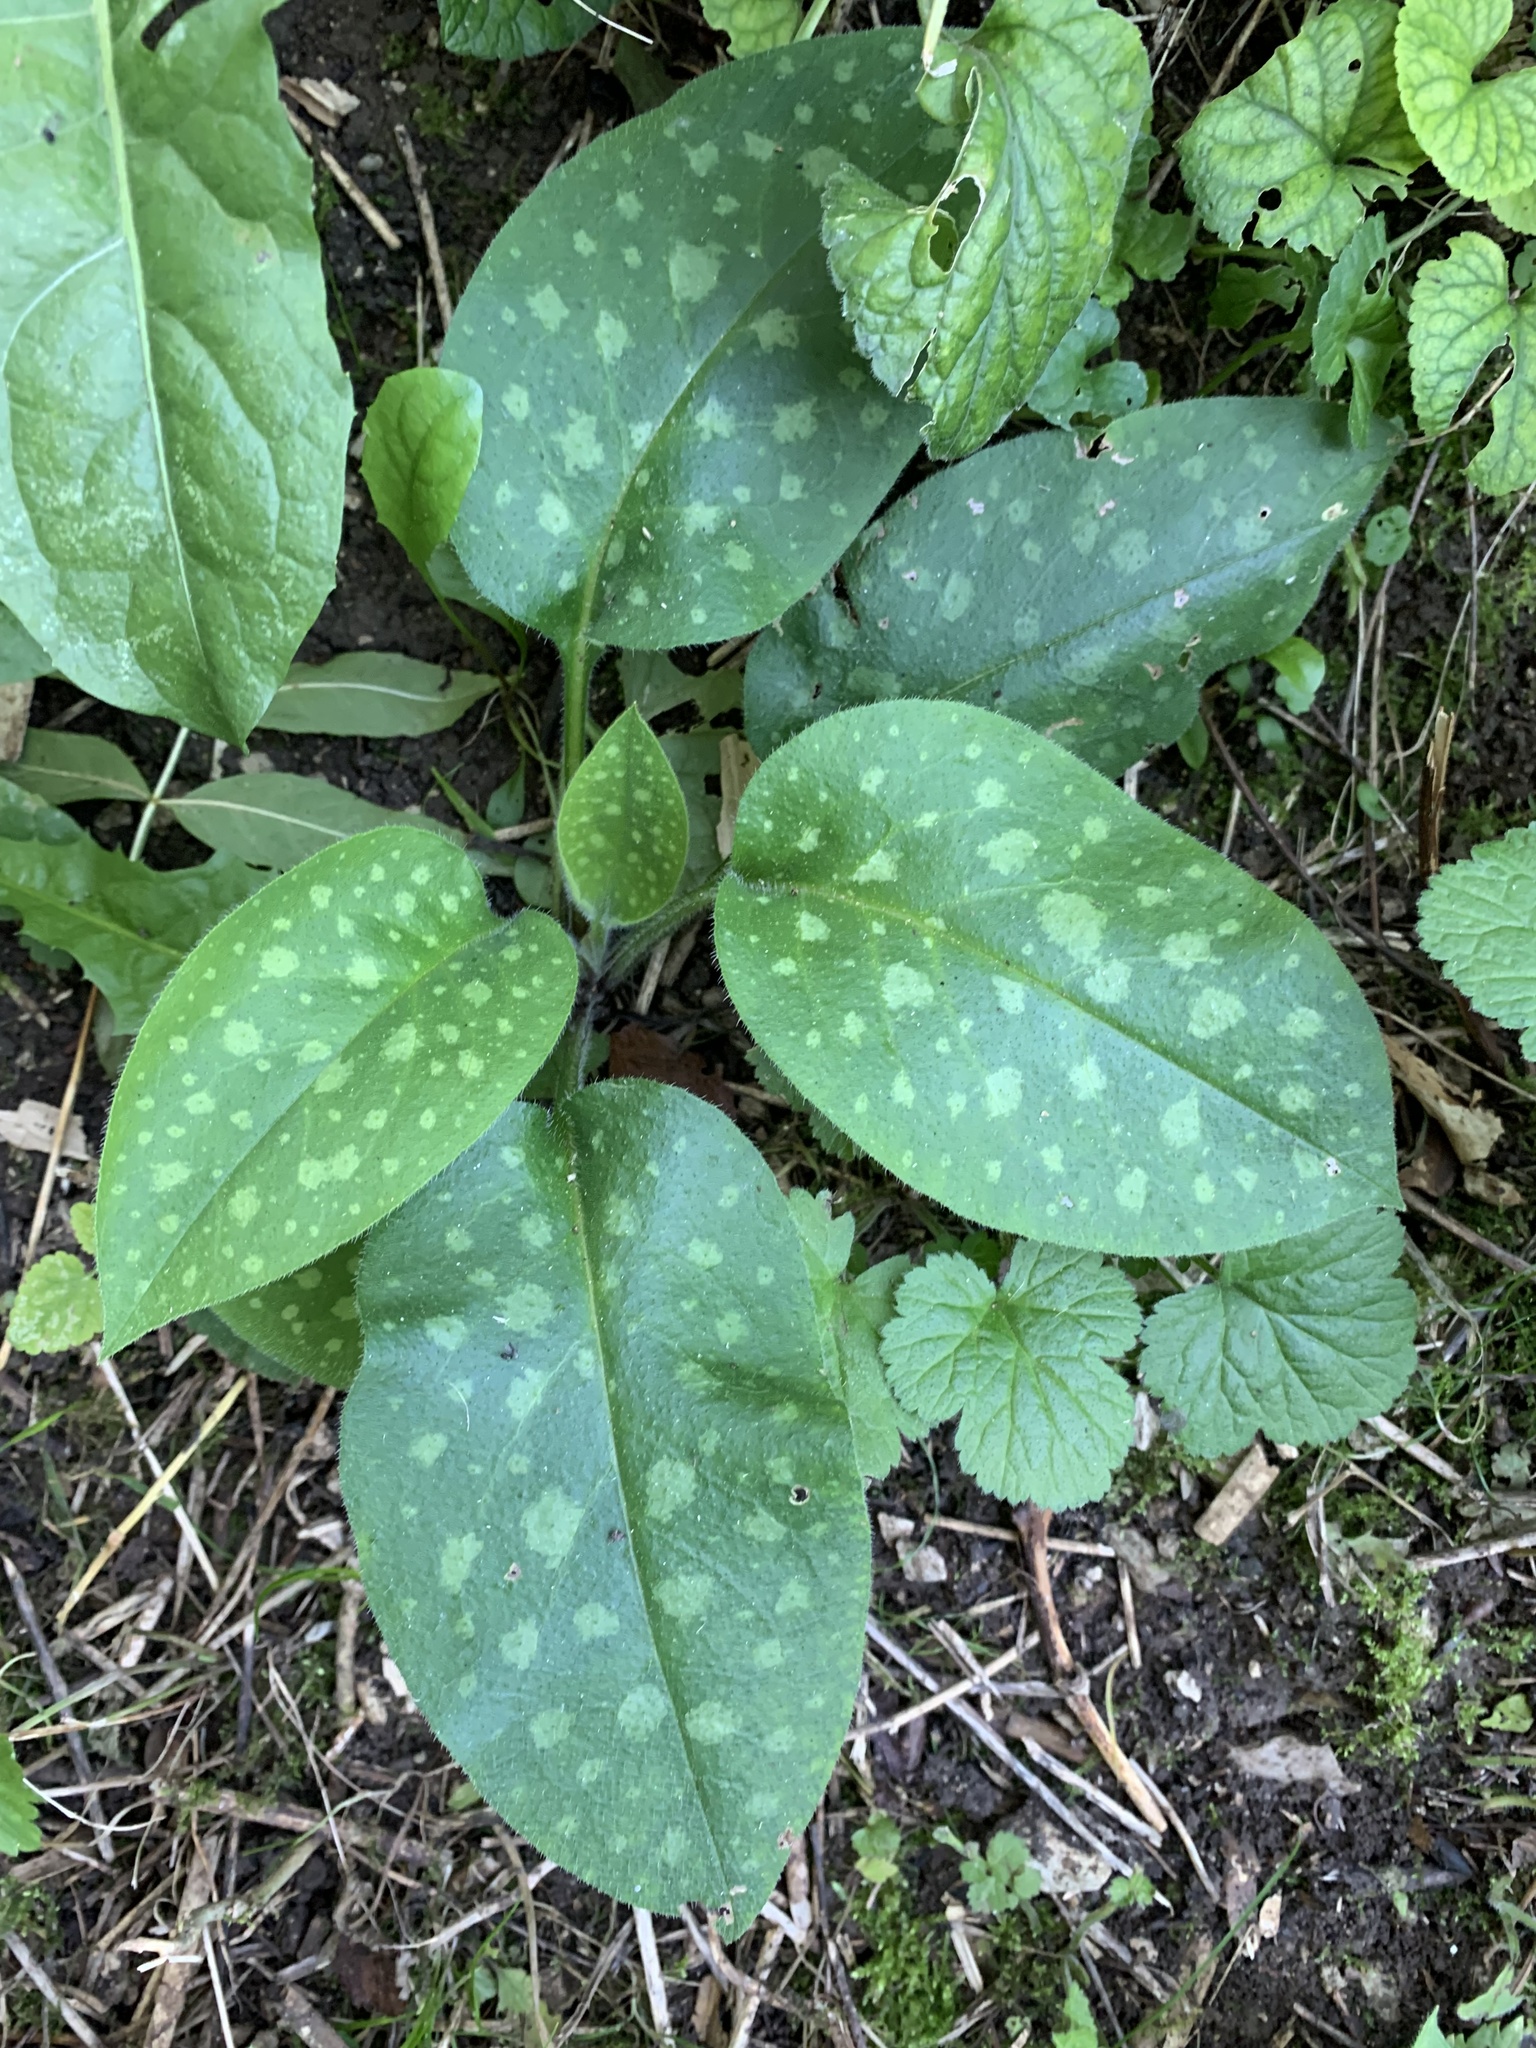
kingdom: Plantae
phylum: Tracheophyta
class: Magnoliopsida
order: Boraginales
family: Boraginaceae
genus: Pulmonaria
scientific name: Pulmonaria officinalis
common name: Lungwort
